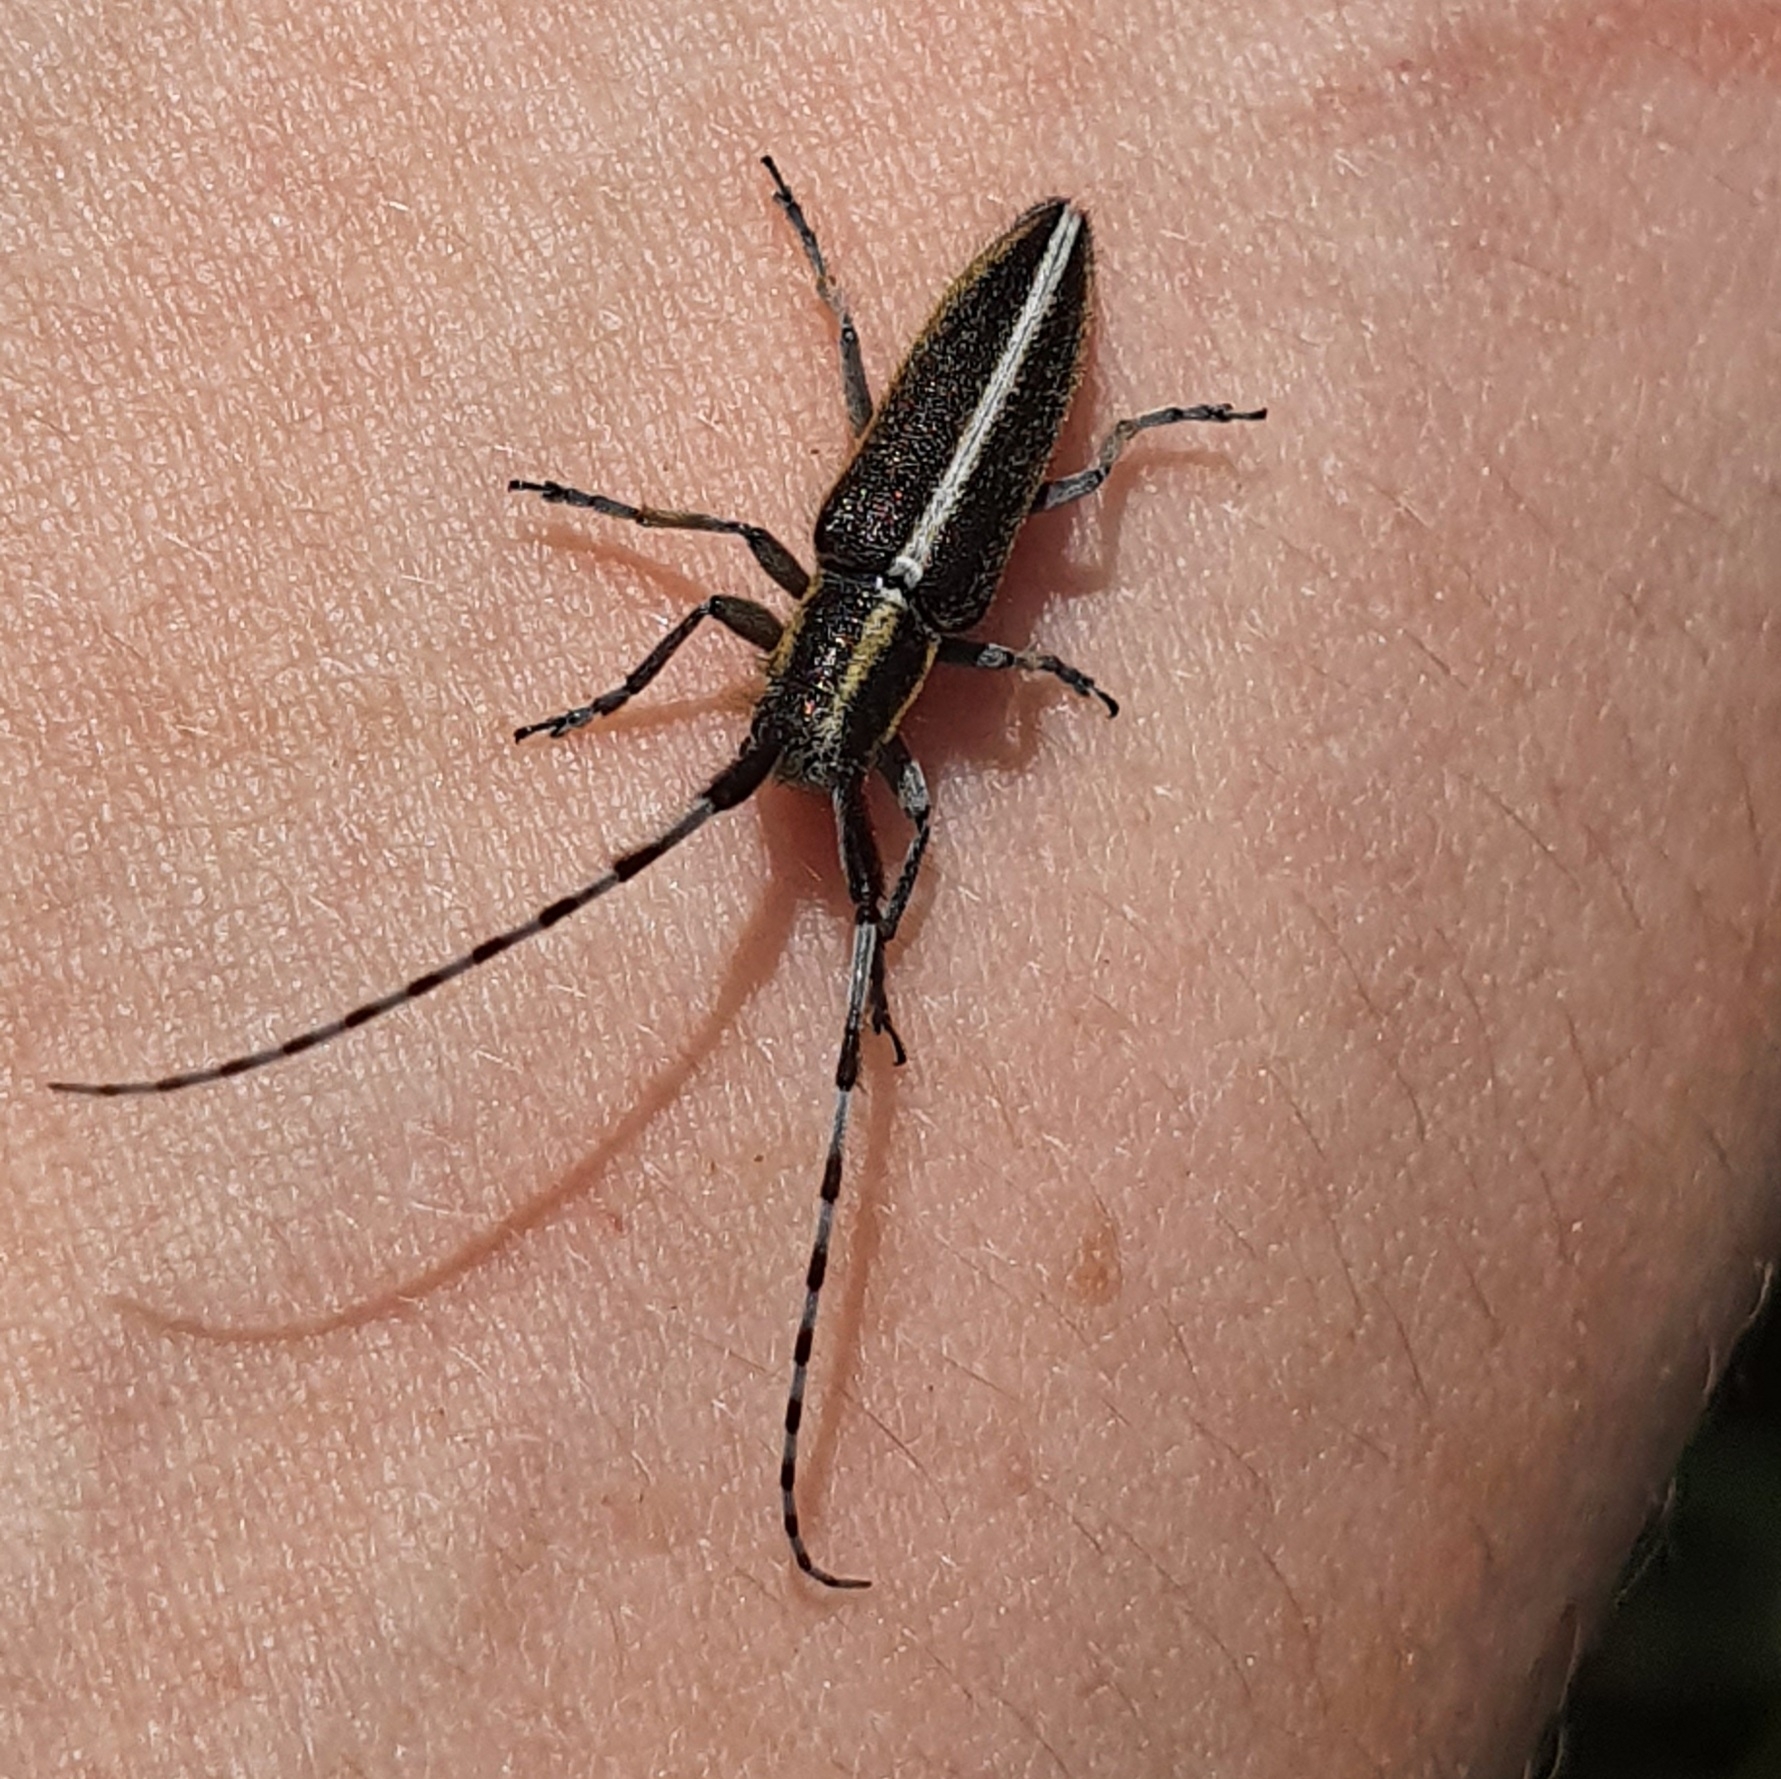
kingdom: Animalia
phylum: Arthropoda
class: Insecta
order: Coleoptera
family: Cerambycidae
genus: Agapanthia
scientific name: Agapanthia suturalis
